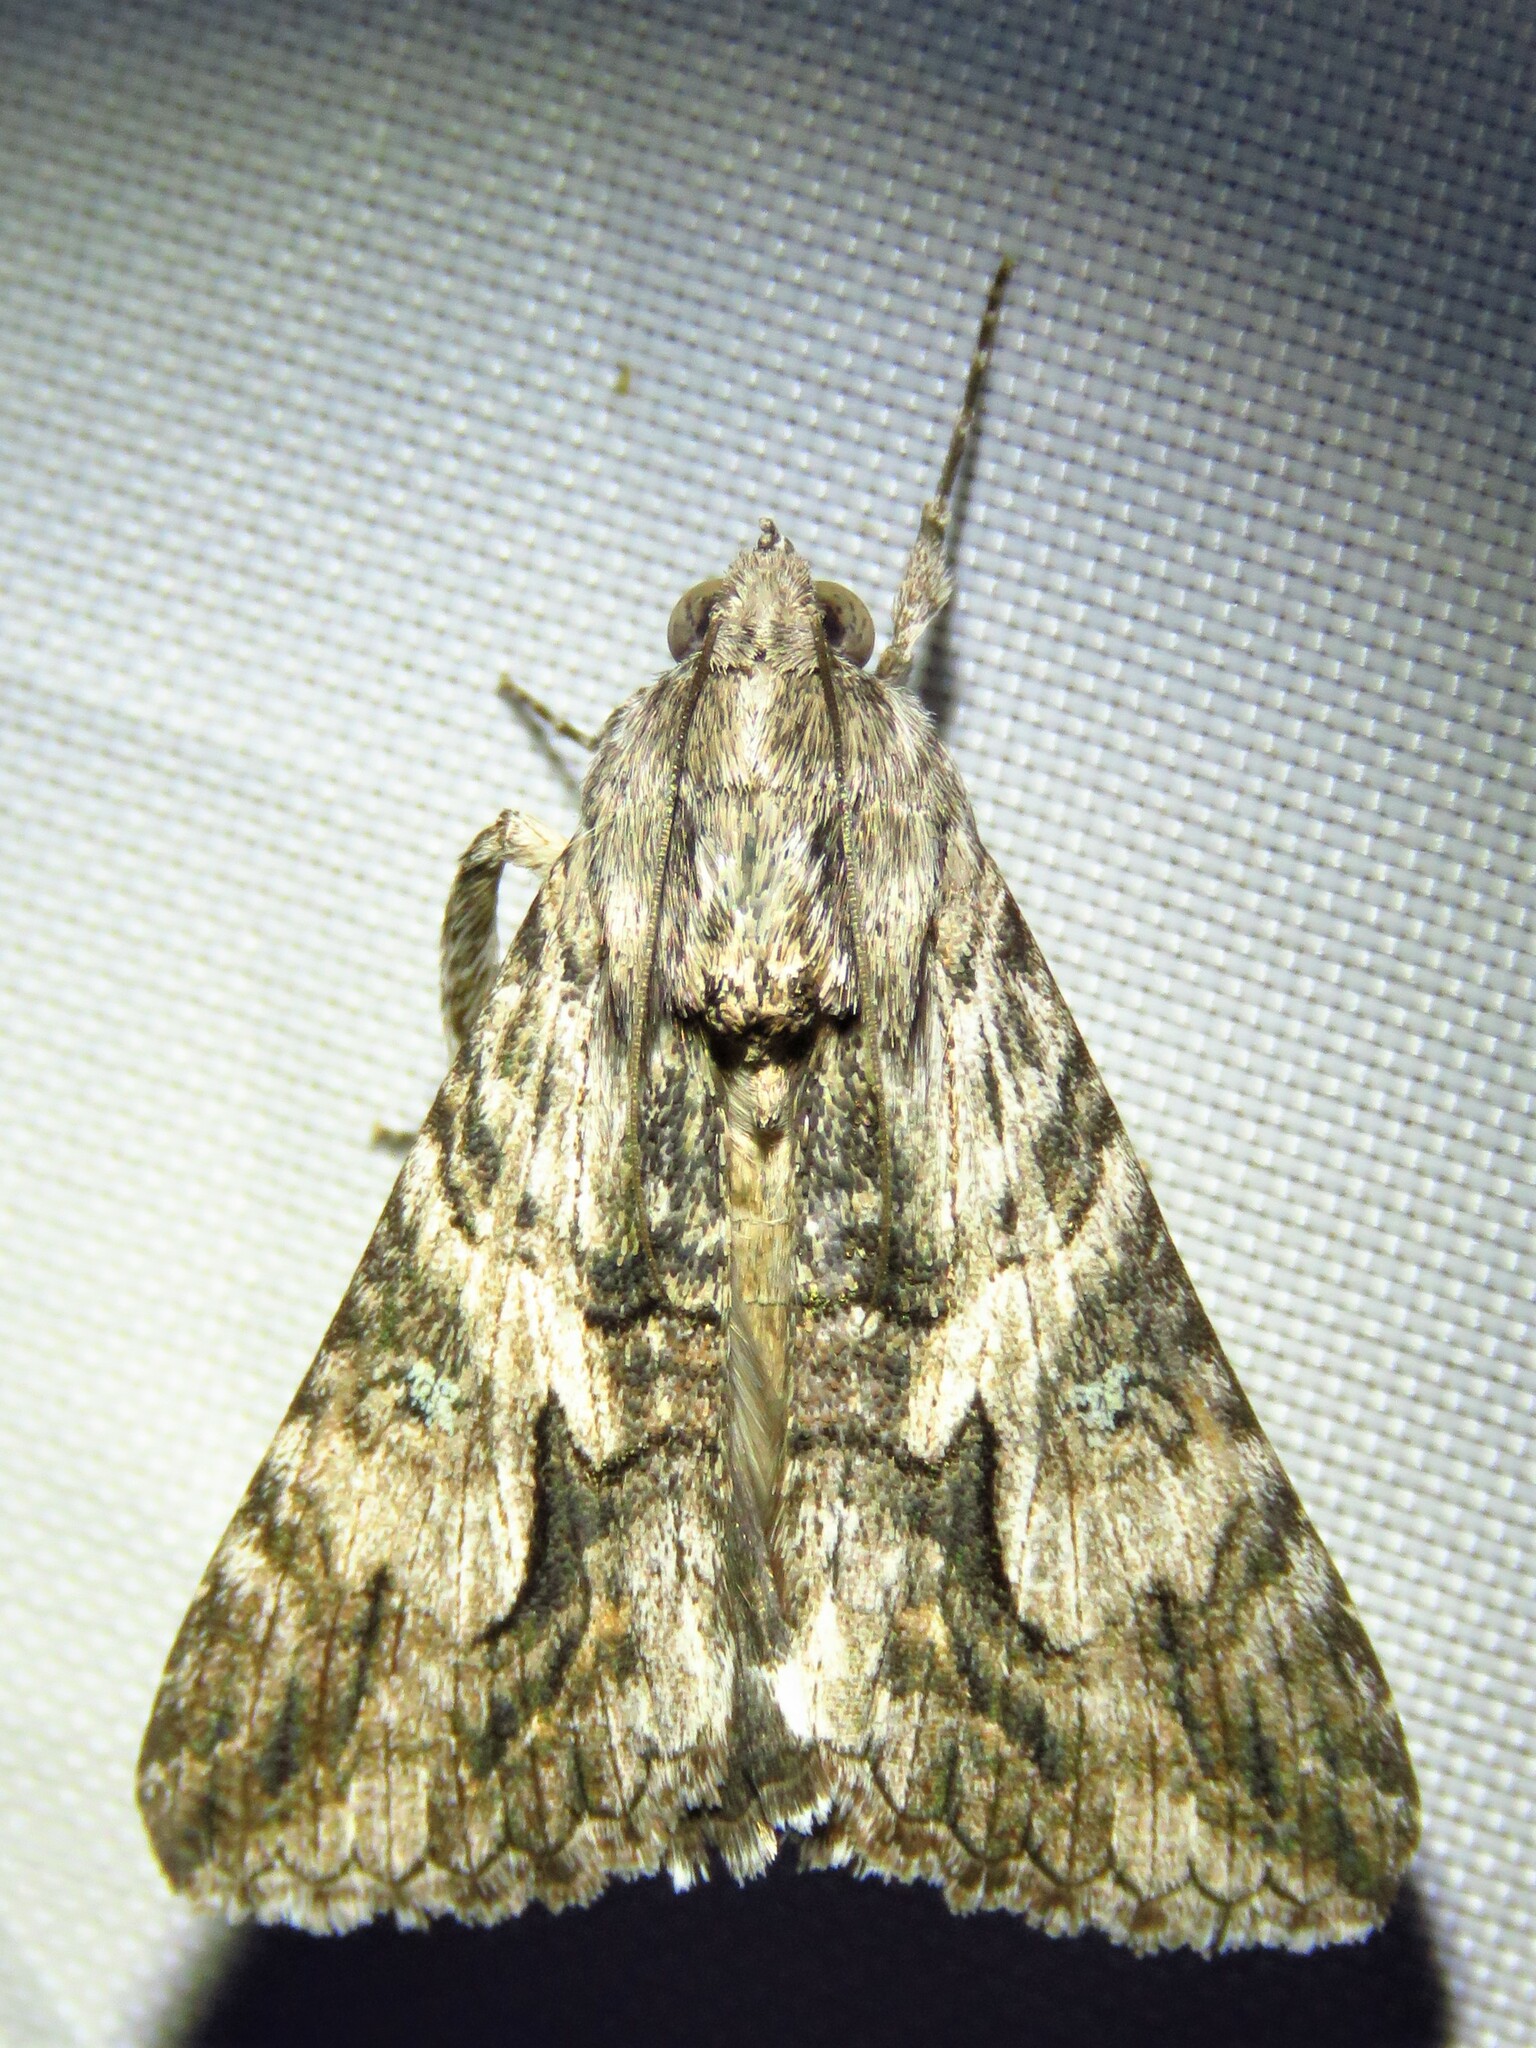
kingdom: Animalia
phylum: Arthropoda
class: Insecta
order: Lepidoptera
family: Erebidae
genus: Melipotis
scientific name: Melipotis jucunda
